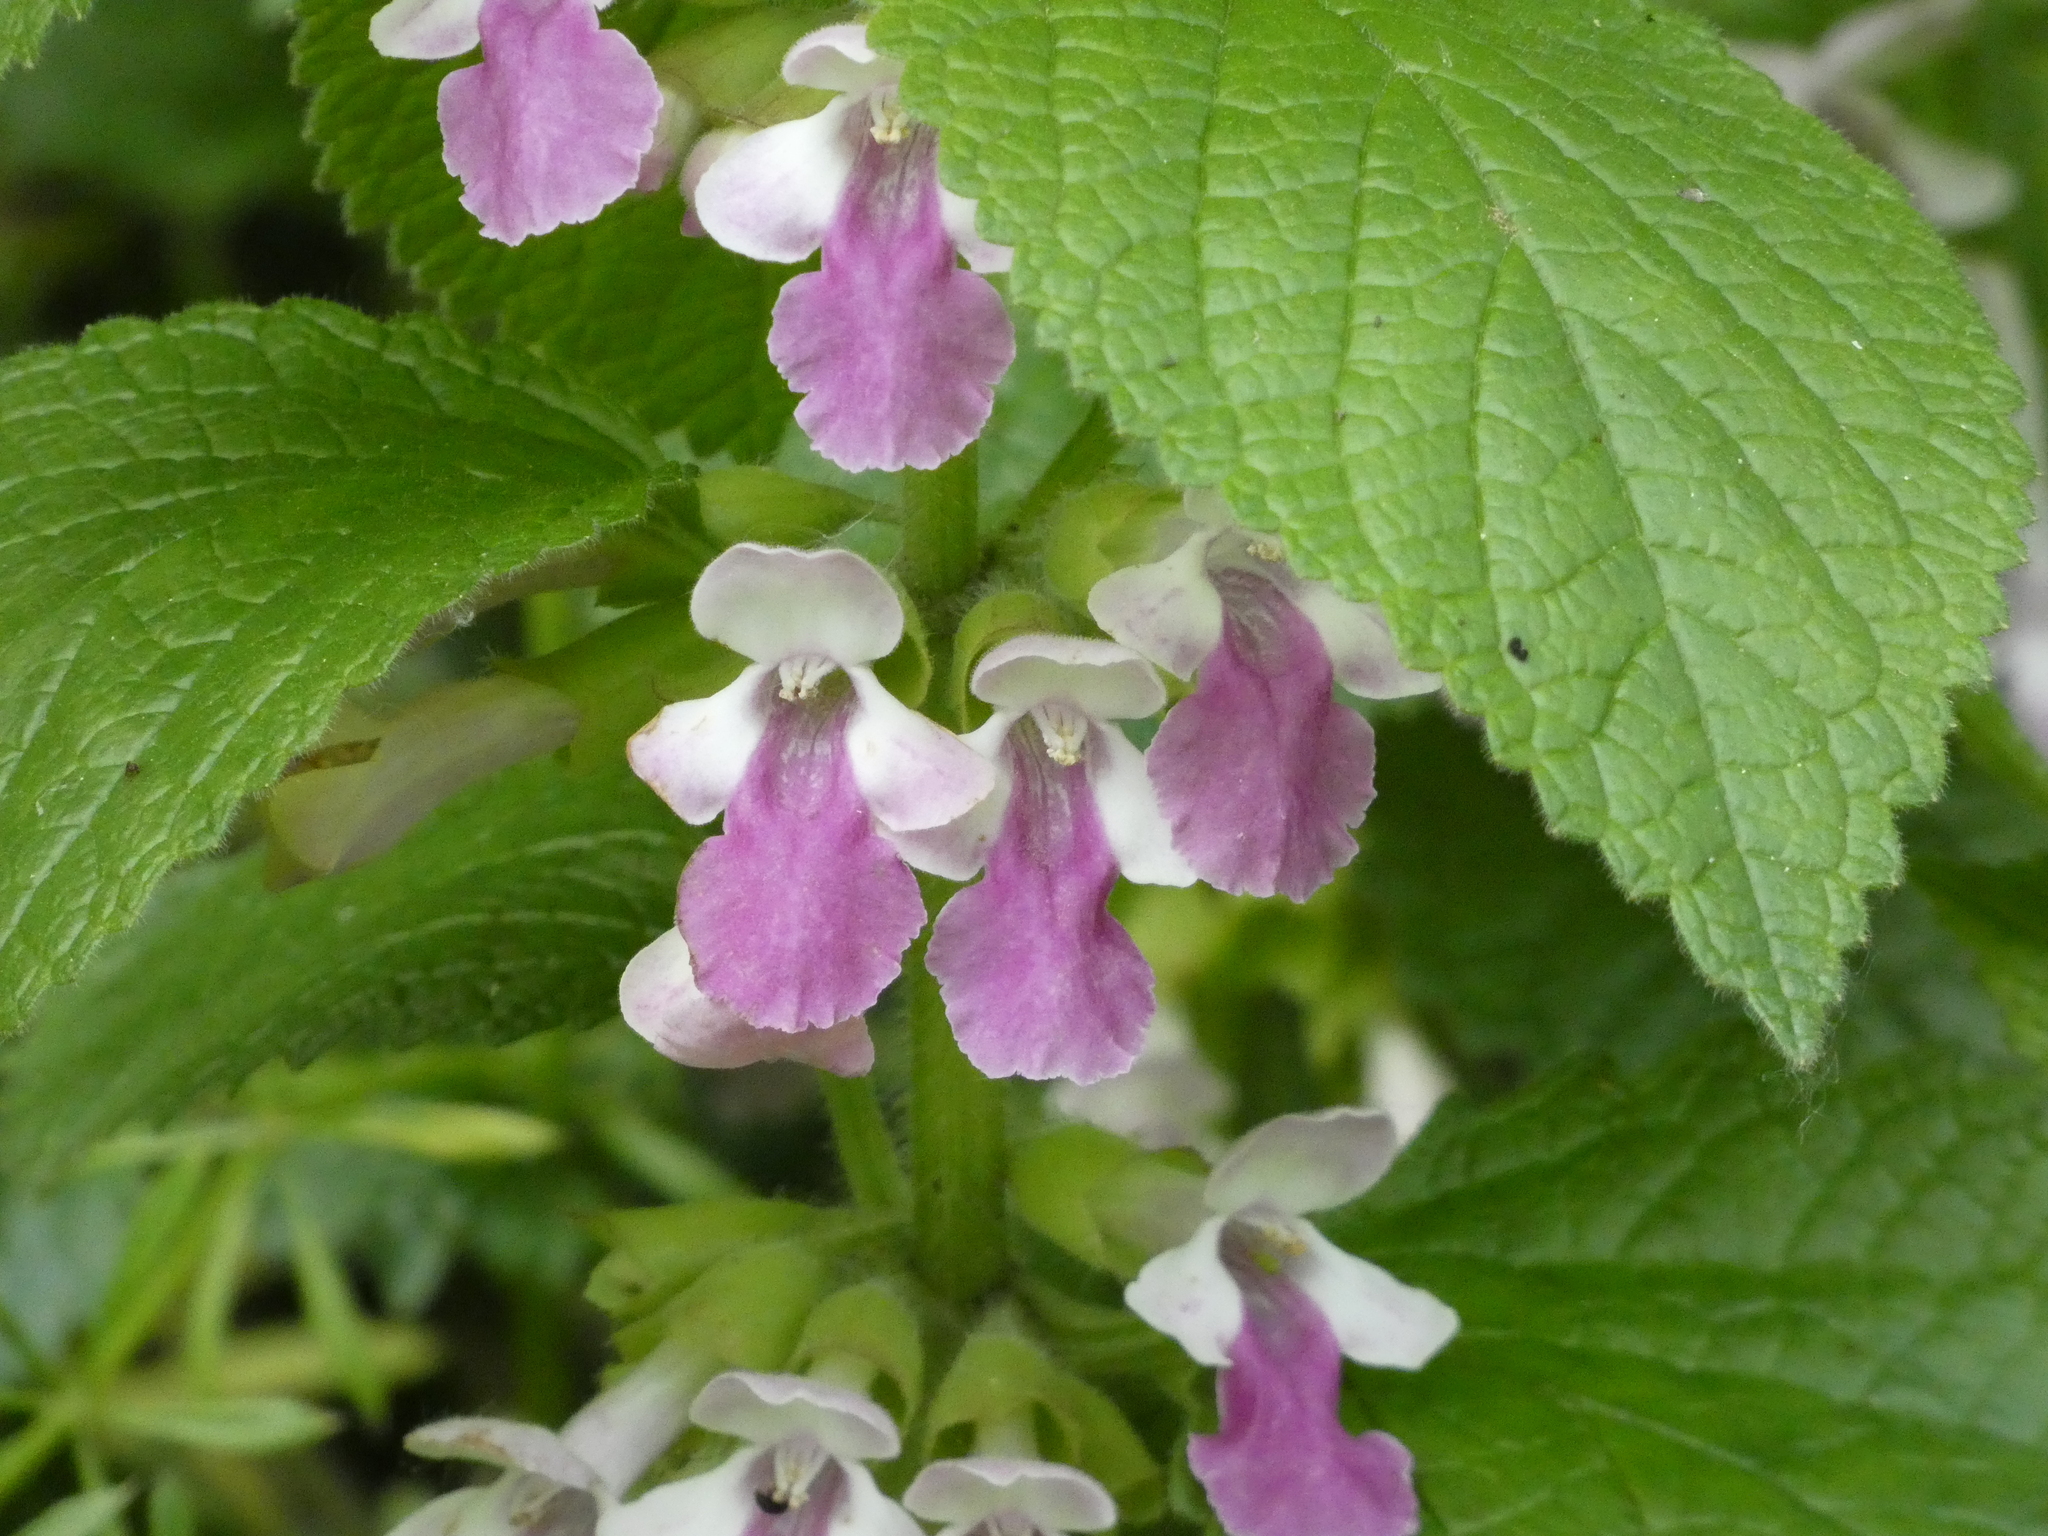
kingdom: Plantae
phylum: Tracheophyta
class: Magnoliopsida
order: Lamiales
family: Lamiaceae
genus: Melittis
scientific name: Melittis melissophyllum
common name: Bastard balm
